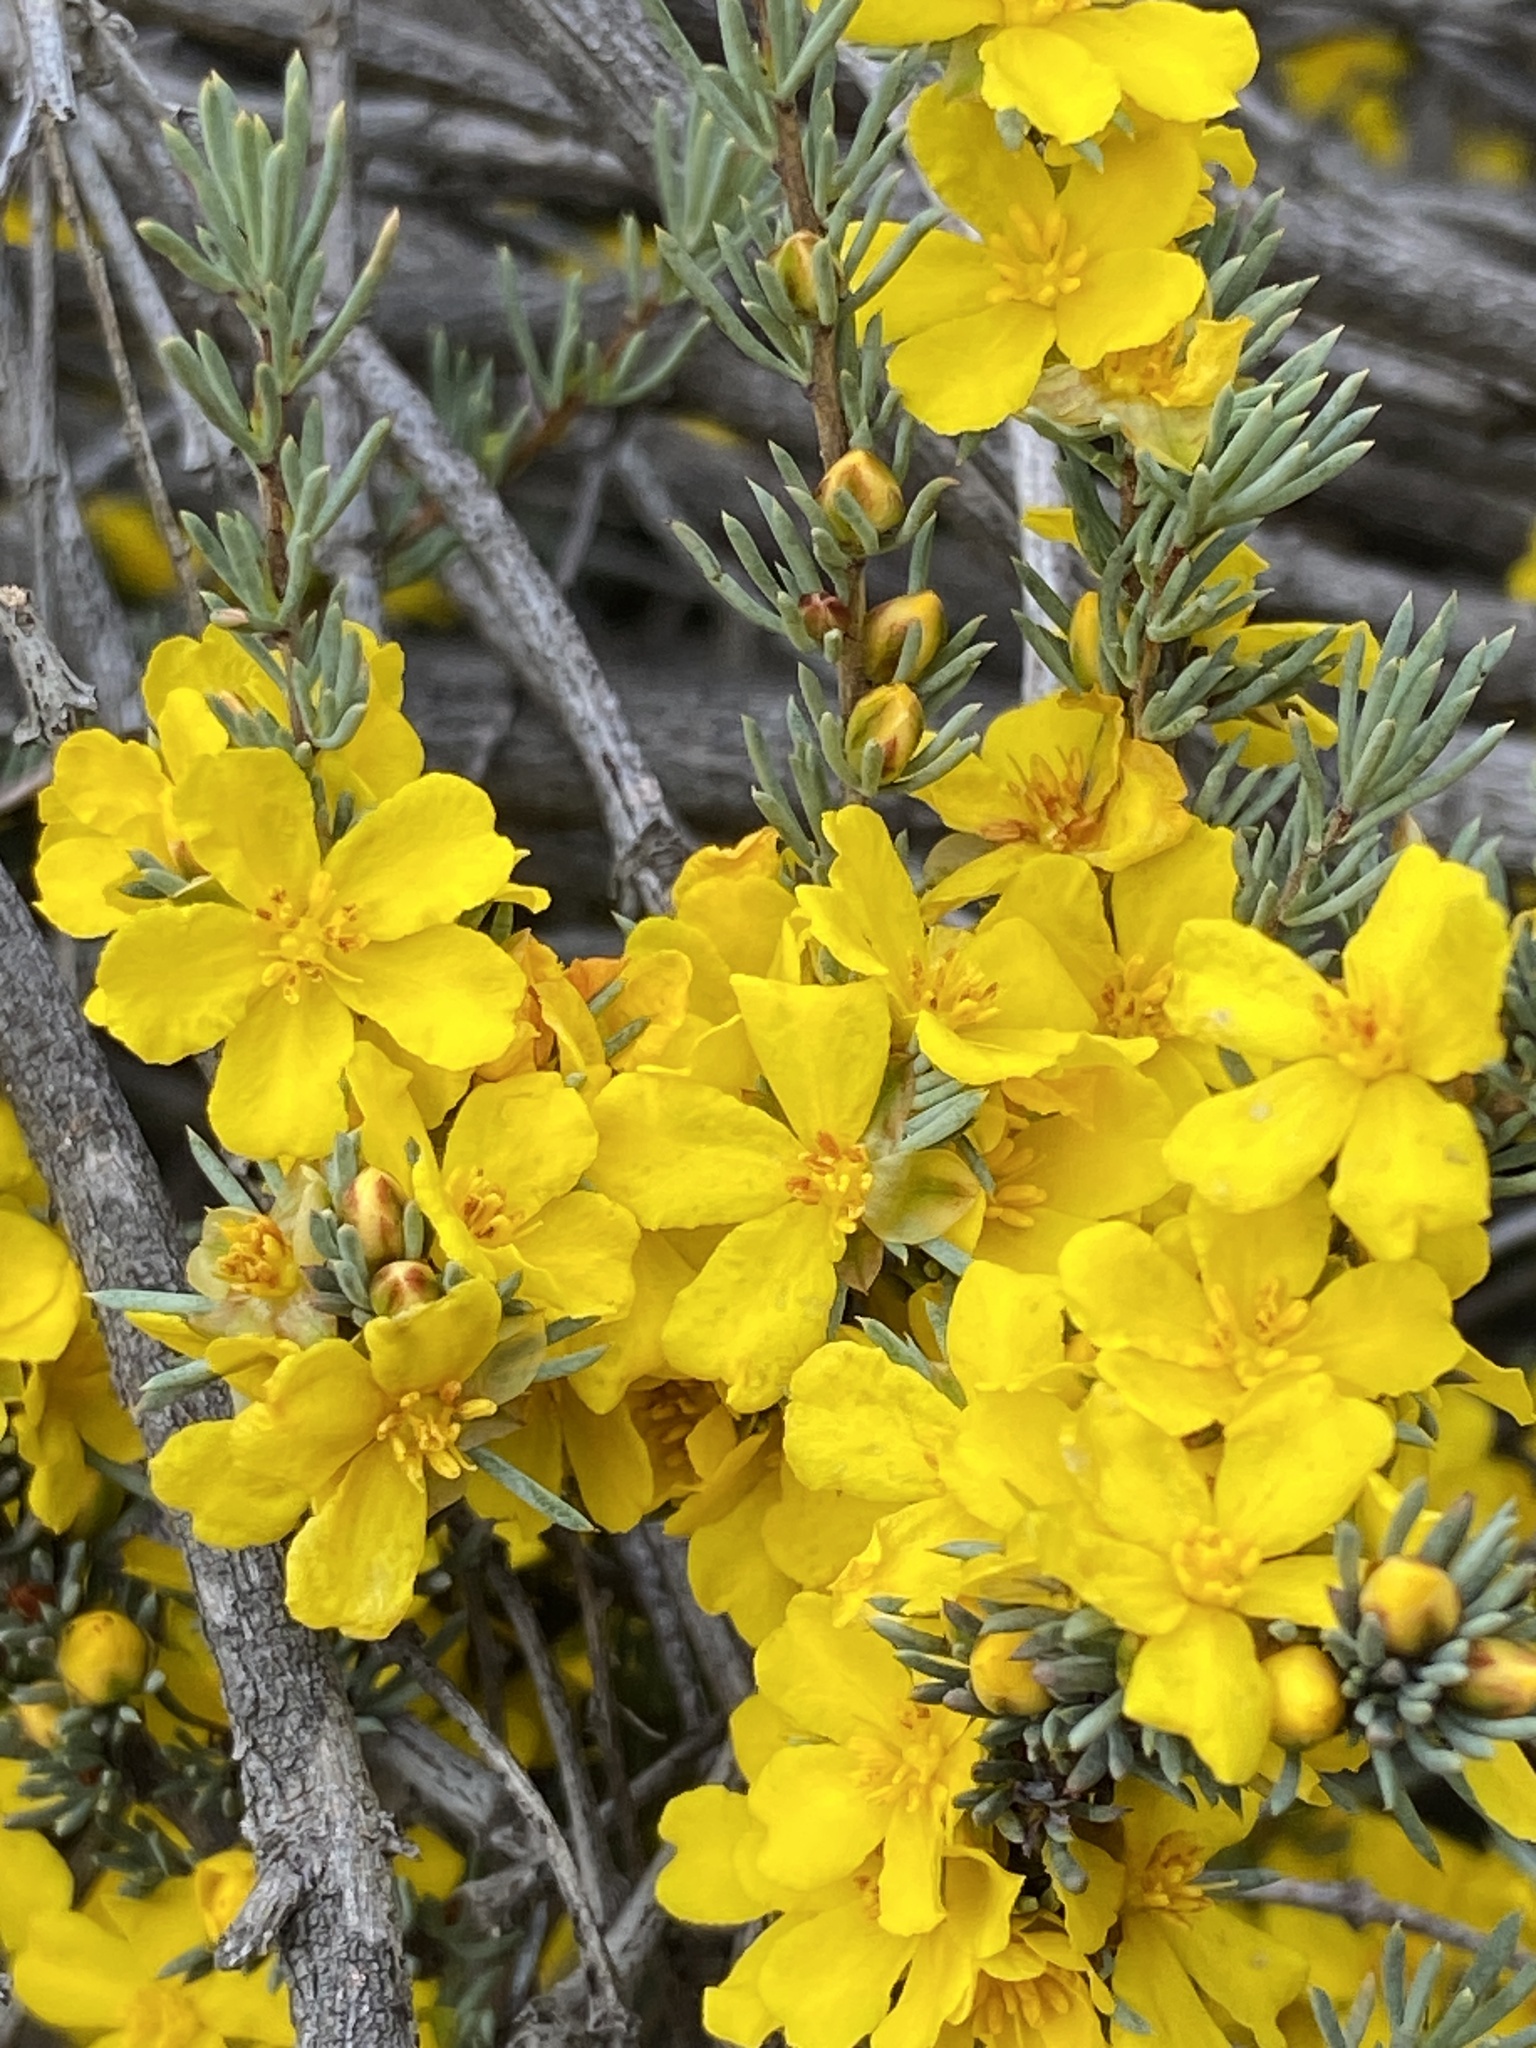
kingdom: Plantae
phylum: Tracheophyta
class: Magnoliopsida
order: Dilleniales
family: Dilleniaceae
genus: Hibbertia
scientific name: Hibbertia hemignosta
